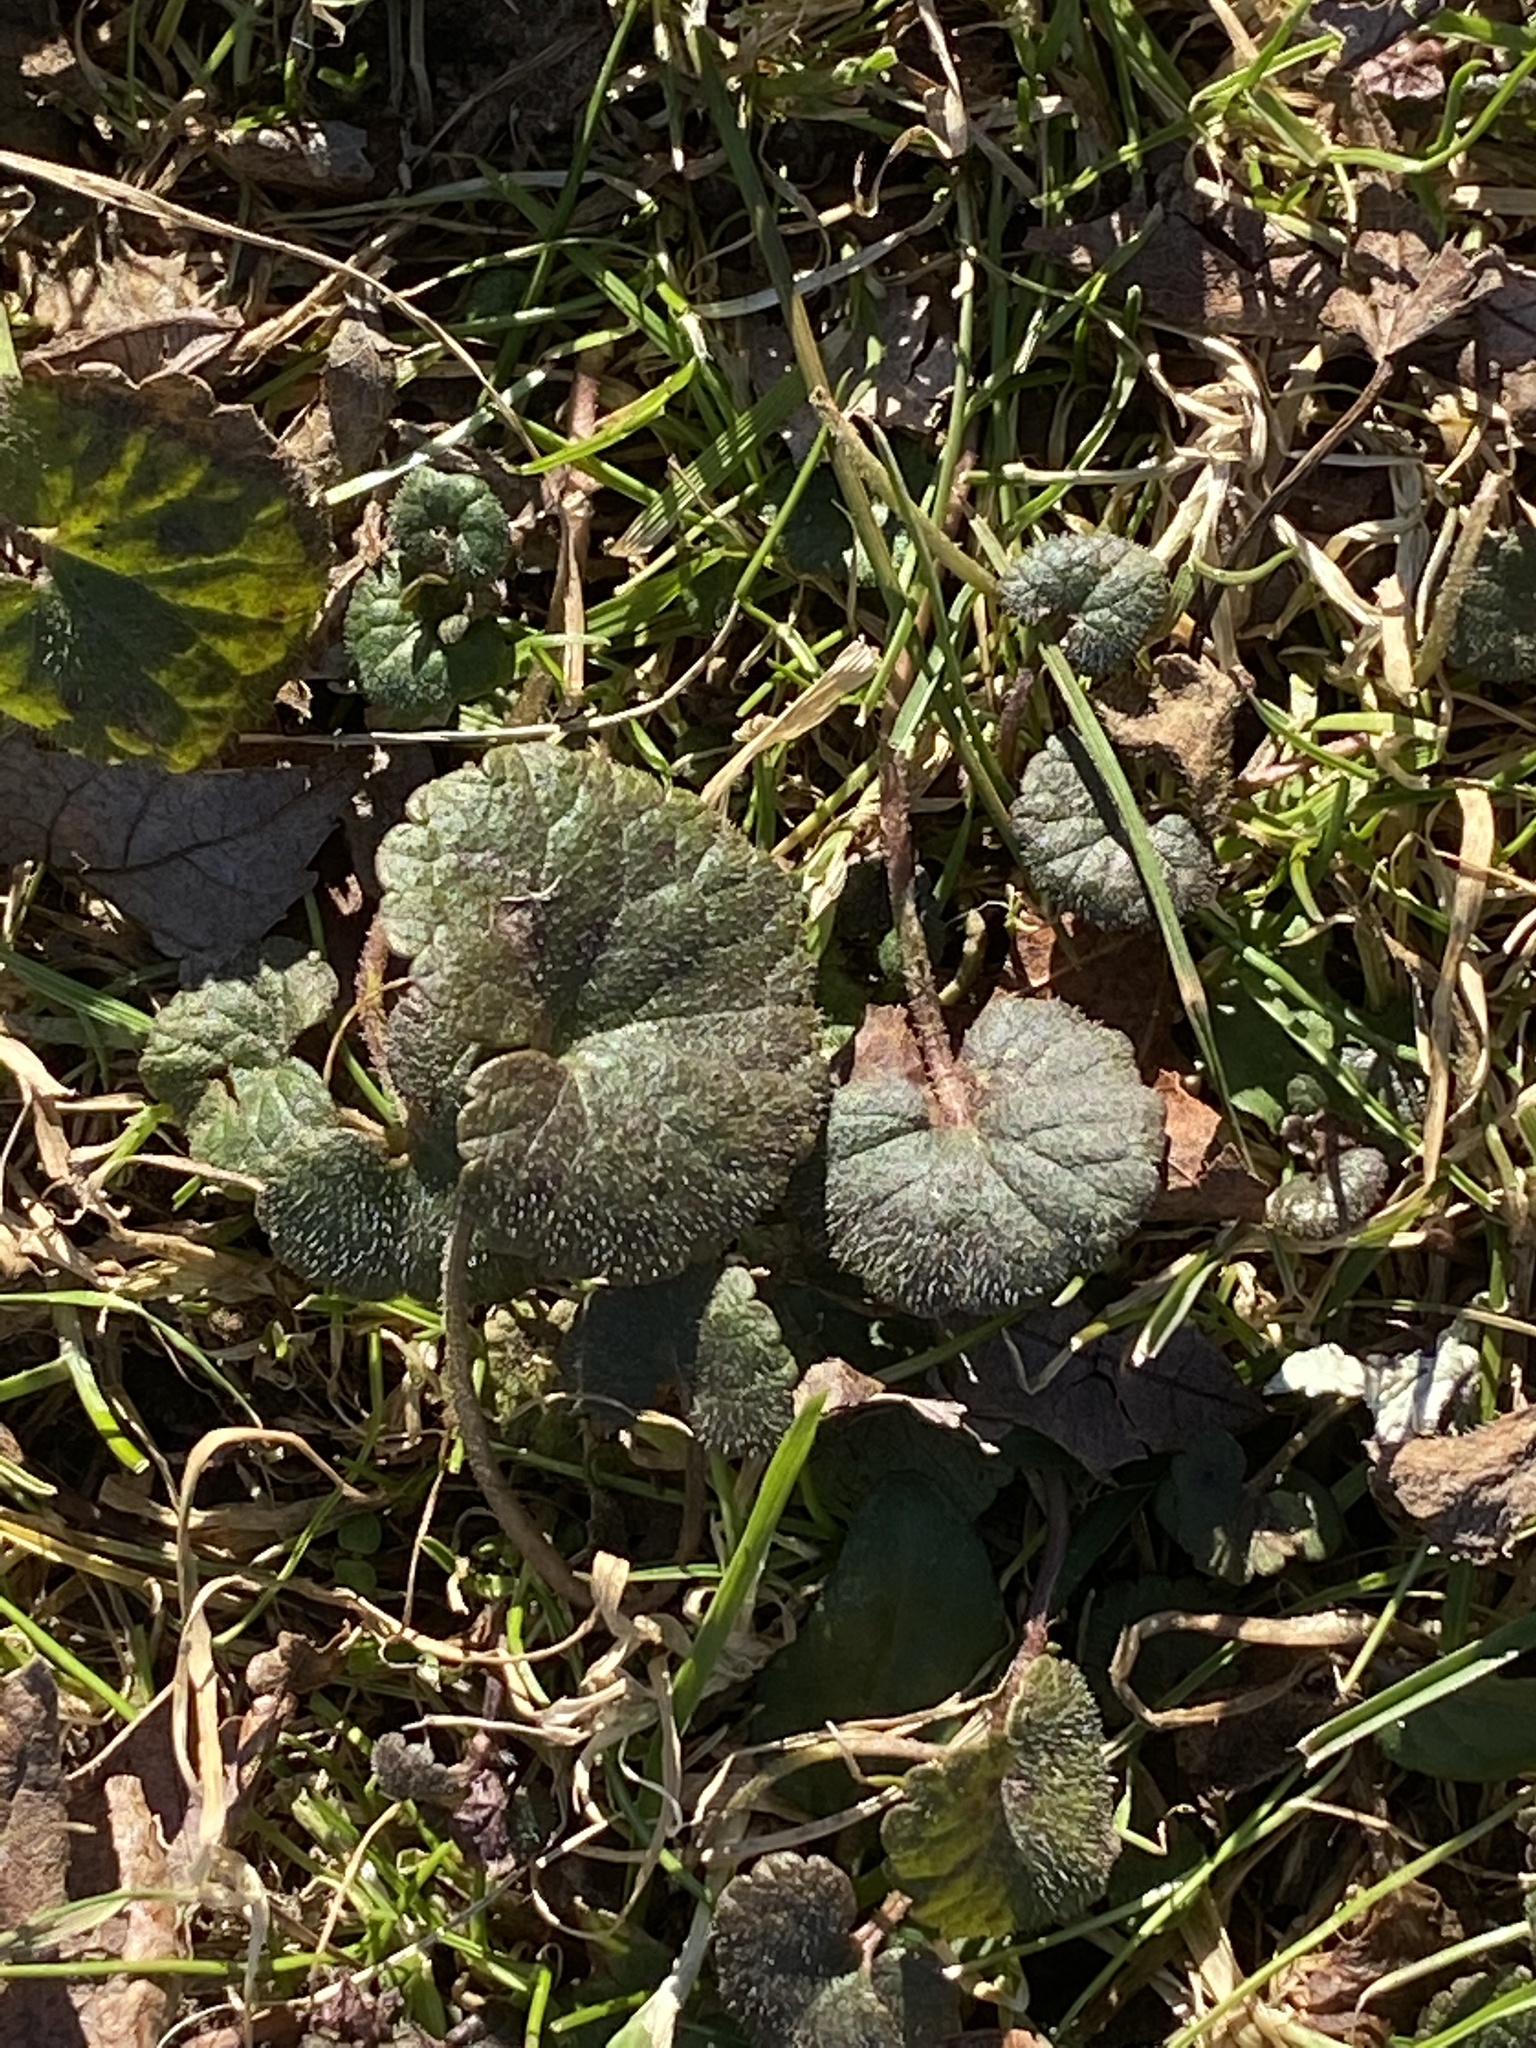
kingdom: Plantae
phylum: Tracheophyta
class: Magnoliopsida
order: Lamiales
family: Lamiaceae
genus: Glechoma
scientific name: Glechoma hederacea
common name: Ground ivy
